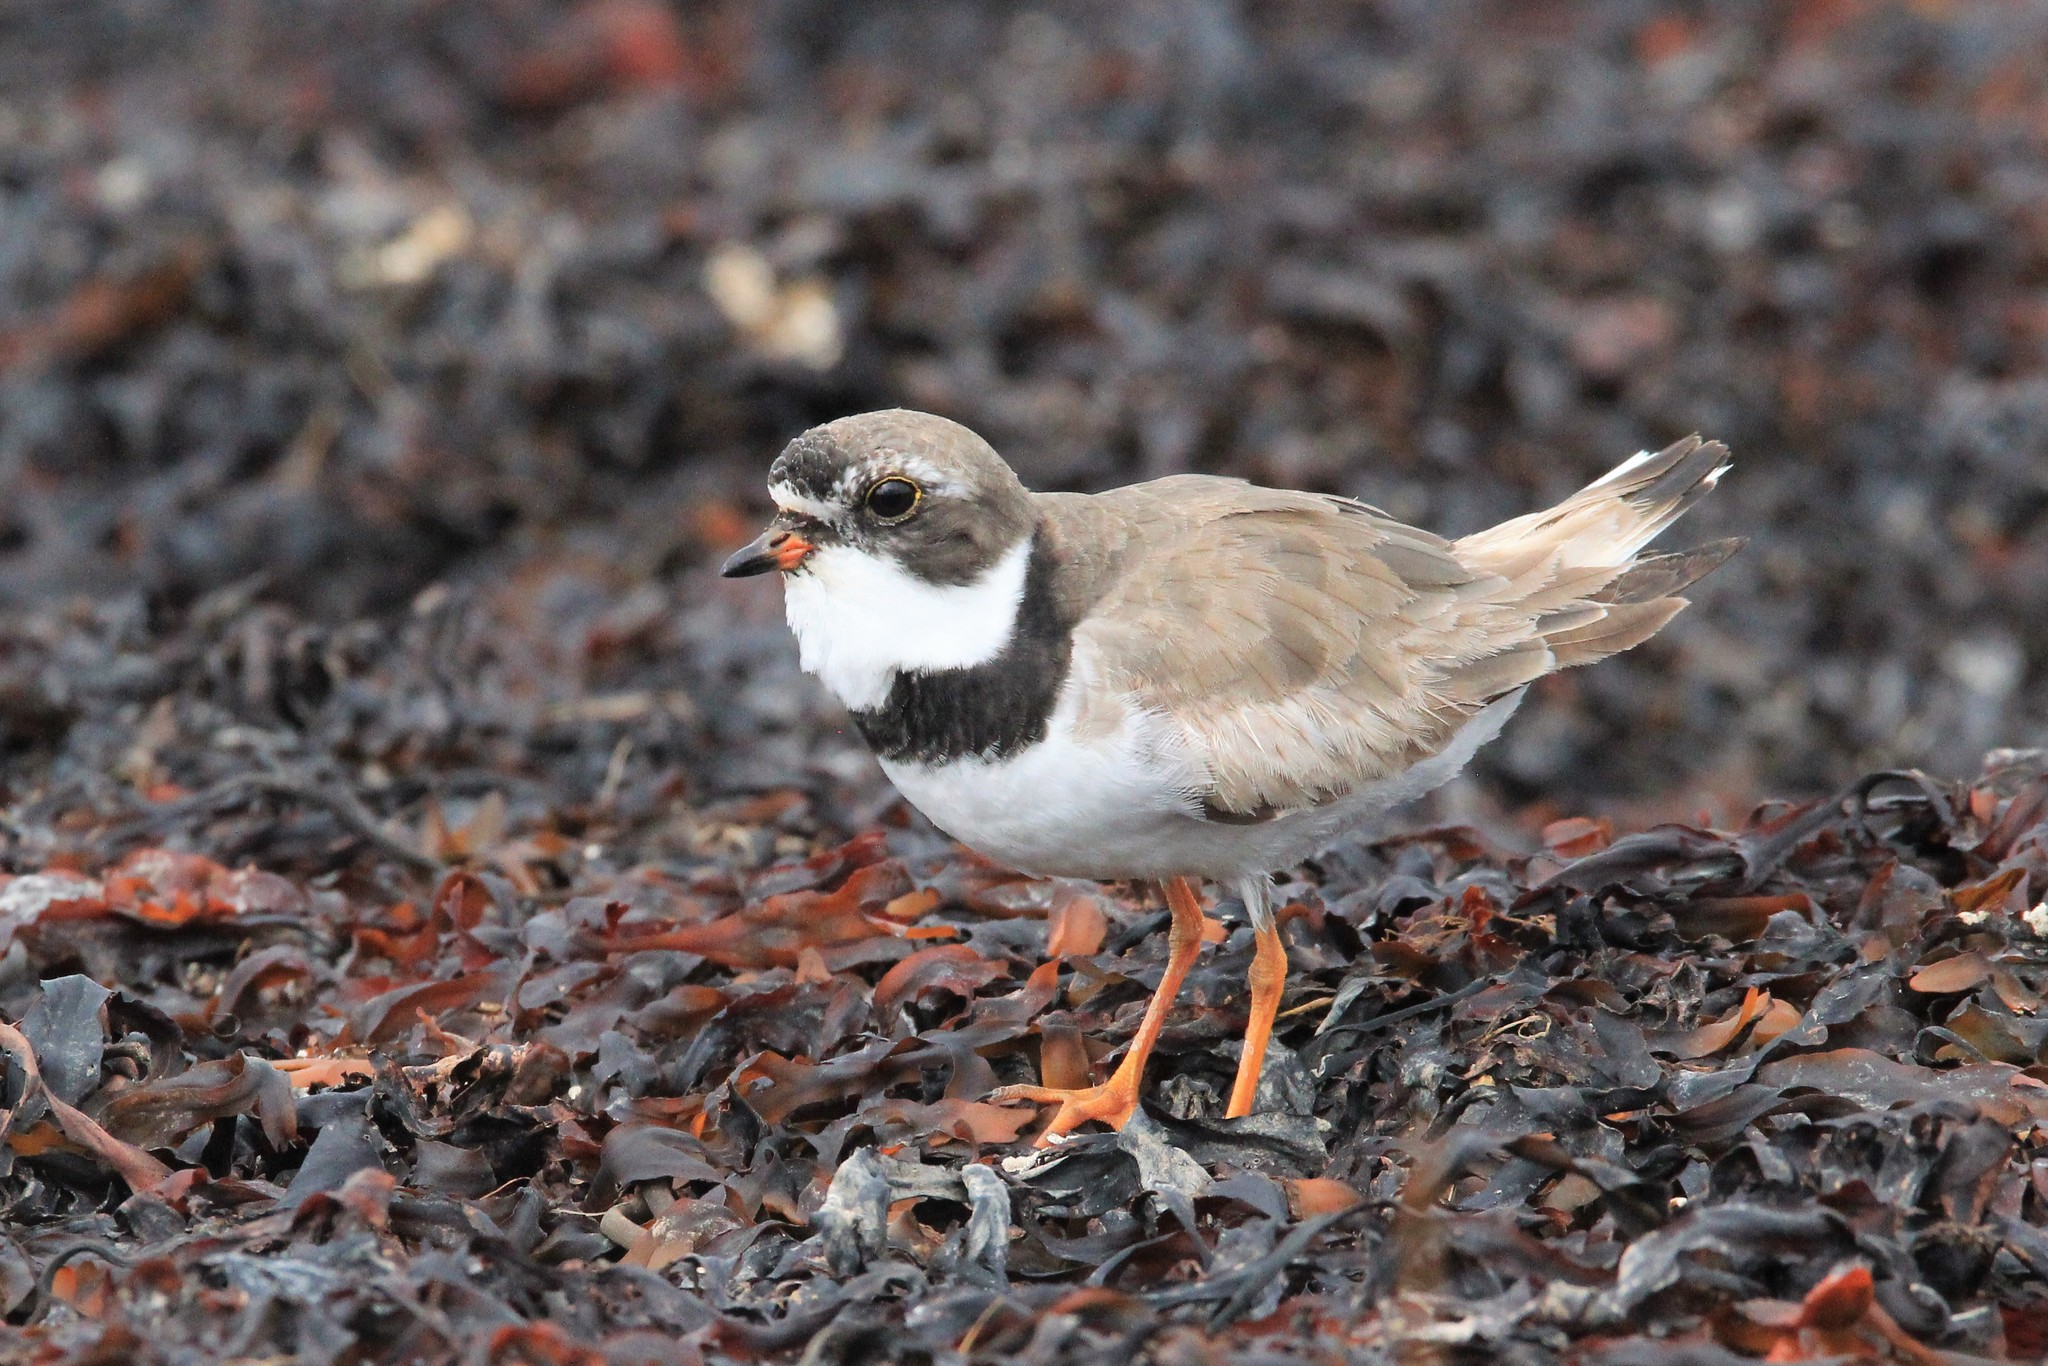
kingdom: Animalia
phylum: Chordata
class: Aves
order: Charadriiformes
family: Charadriidae
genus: Charadrius
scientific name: Charadrius semipalmatus
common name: Semipalmated plover
